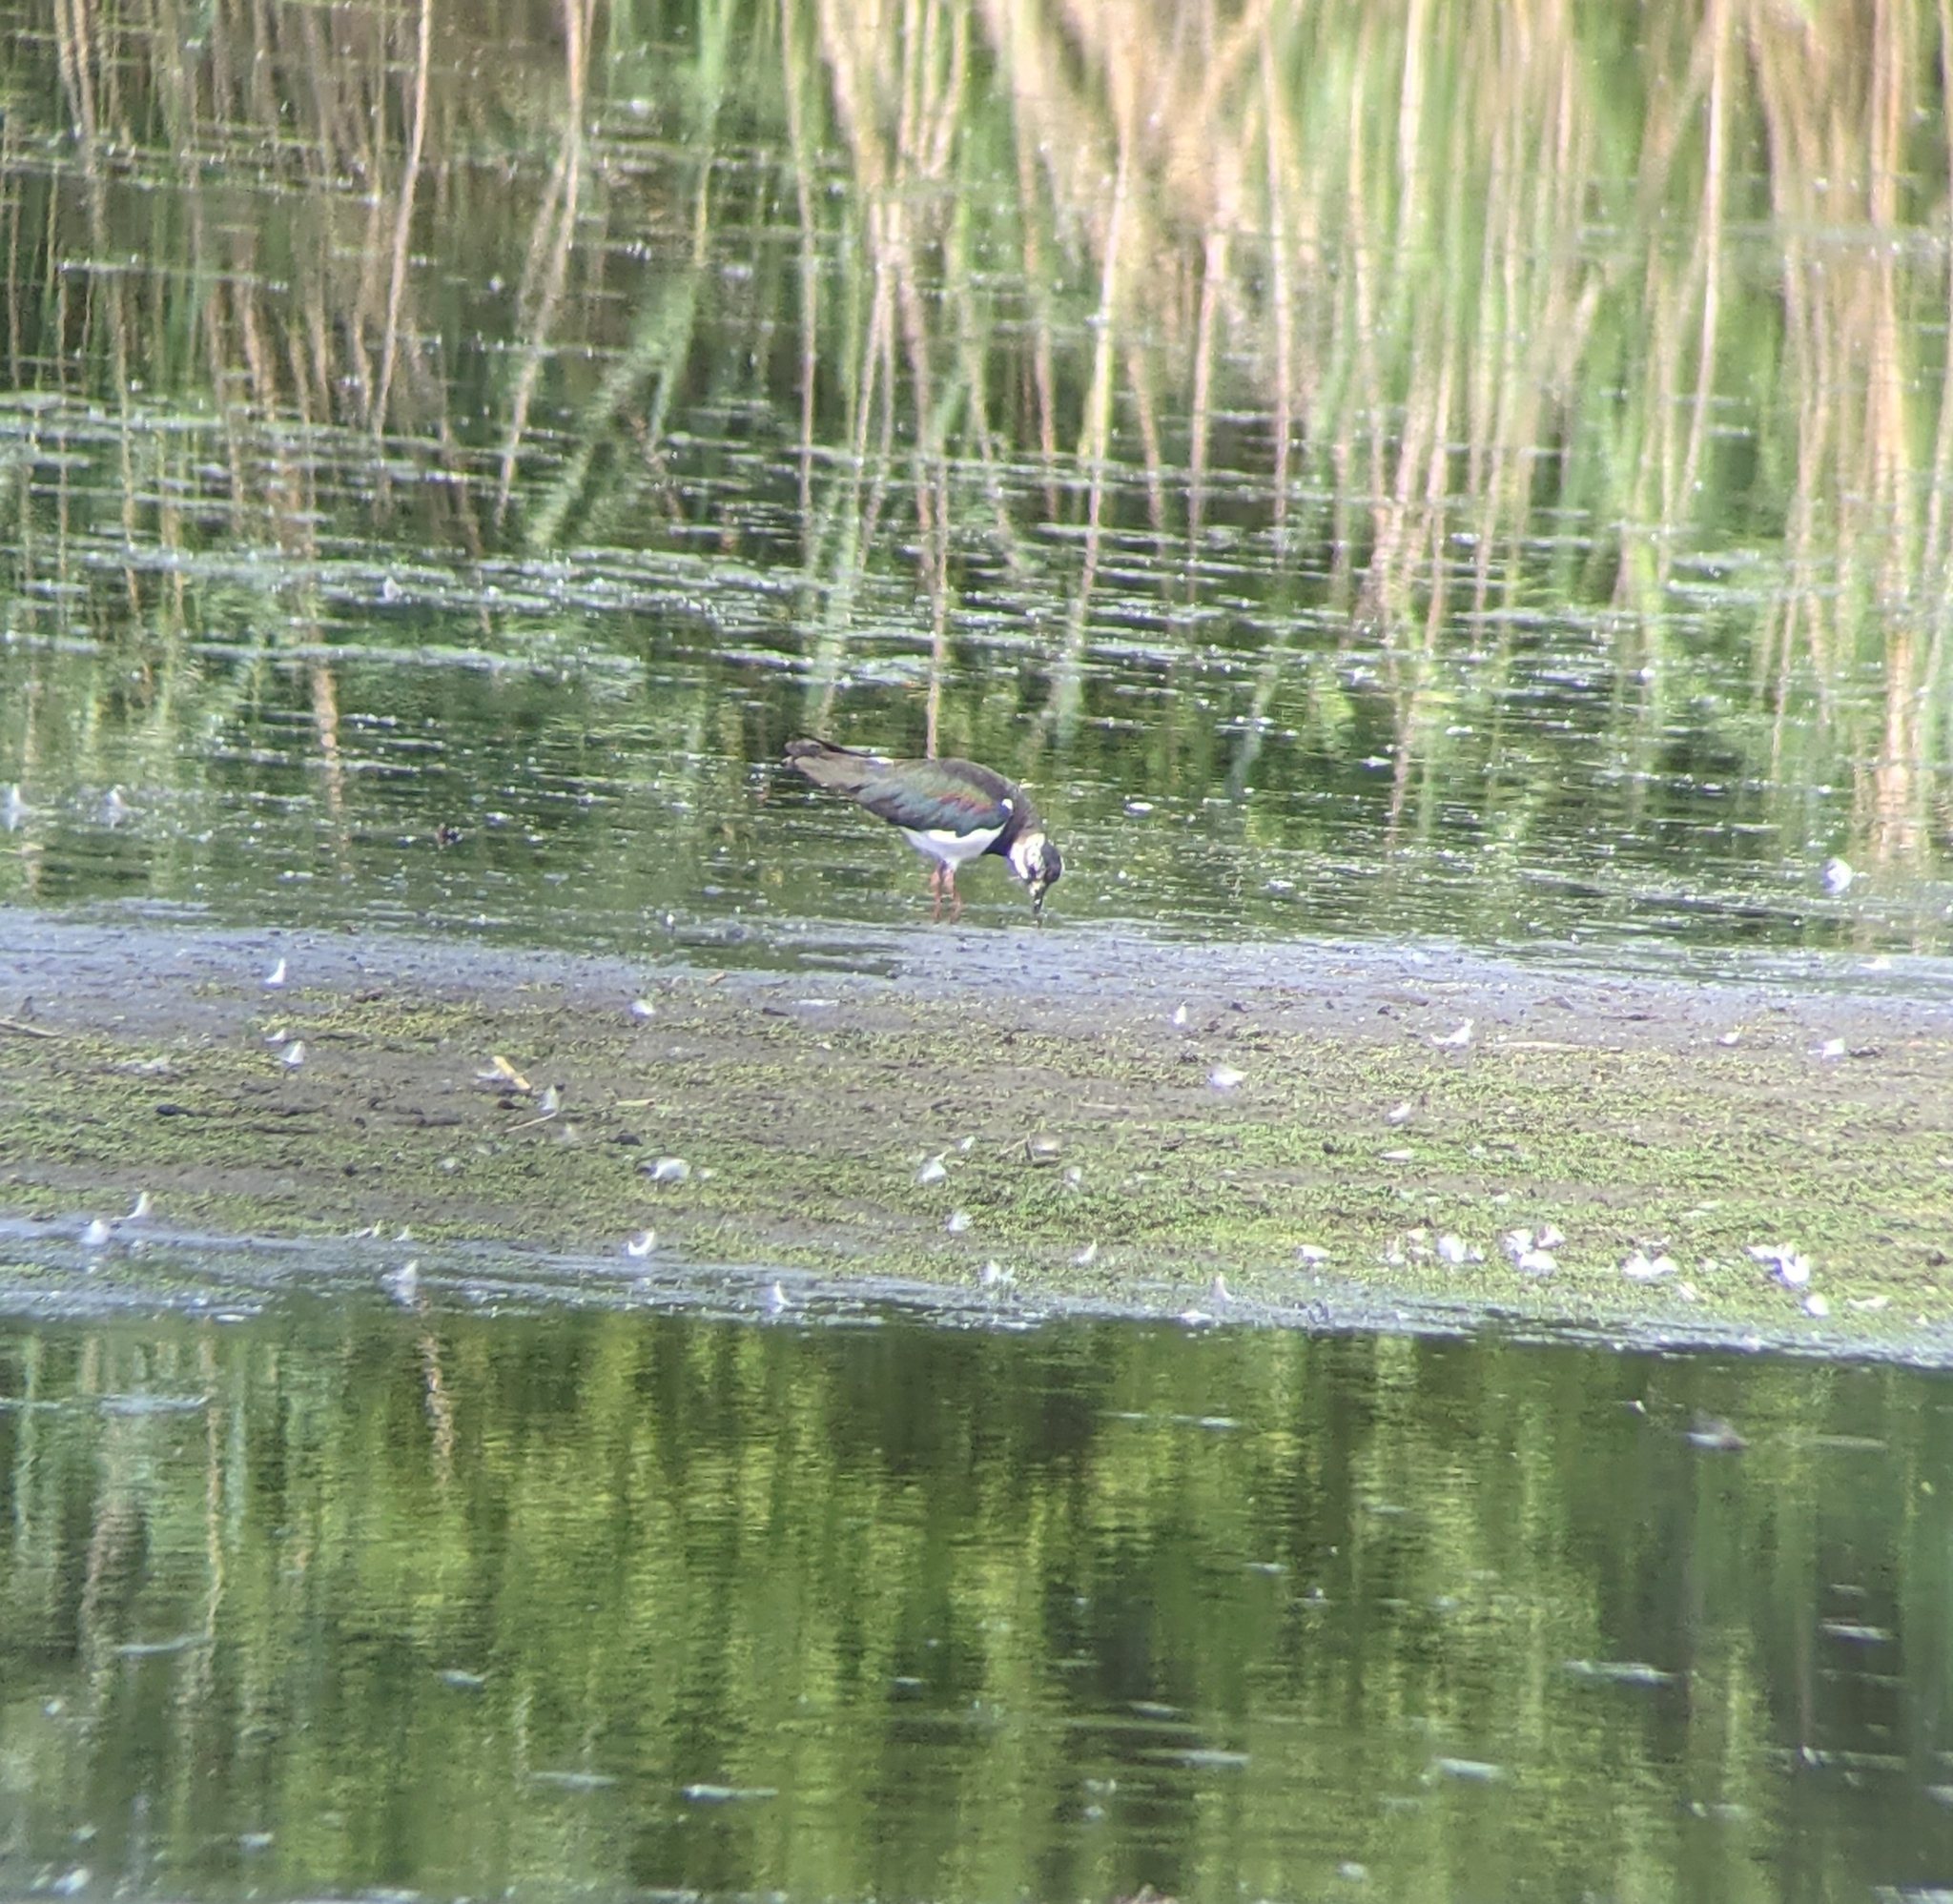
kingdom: Animalia
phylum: Chordata
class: Aves
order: Charadriiformes
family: Charadriidae
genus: Vanellus
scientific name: Vanellus vanellus
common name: Northern lapwing
